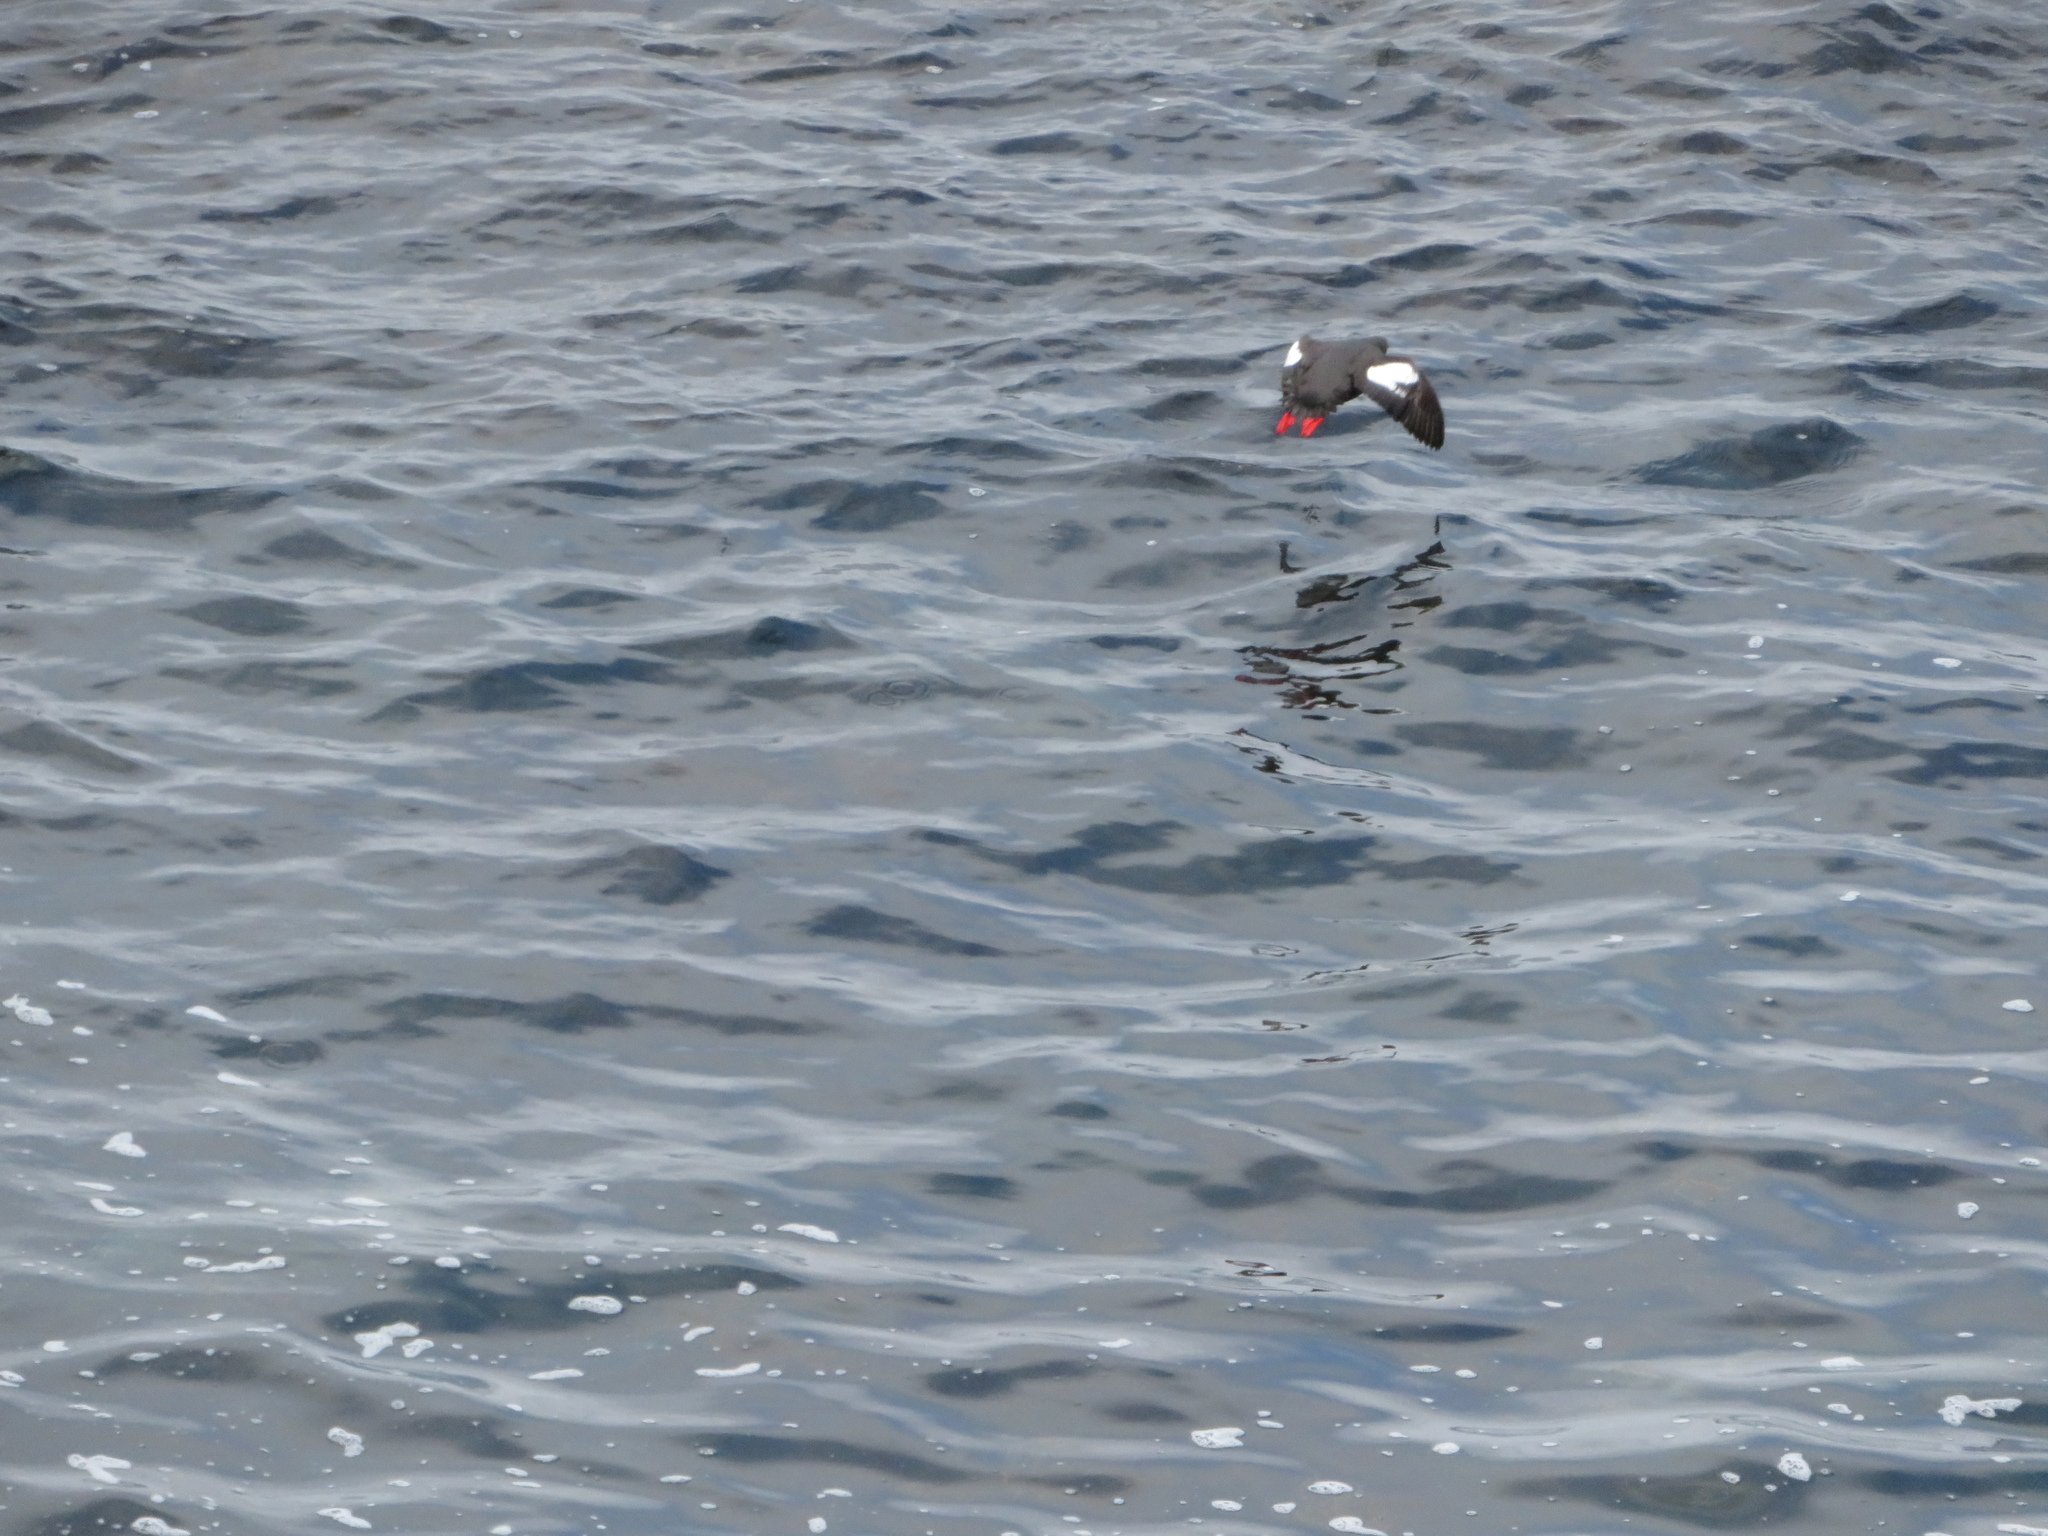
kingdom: Animalia
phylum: Chordata
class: Aves
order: Charadriiformes
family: Alcidae
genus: Cepphus
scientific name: Cepphus columba
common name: Pigeon guillemot
